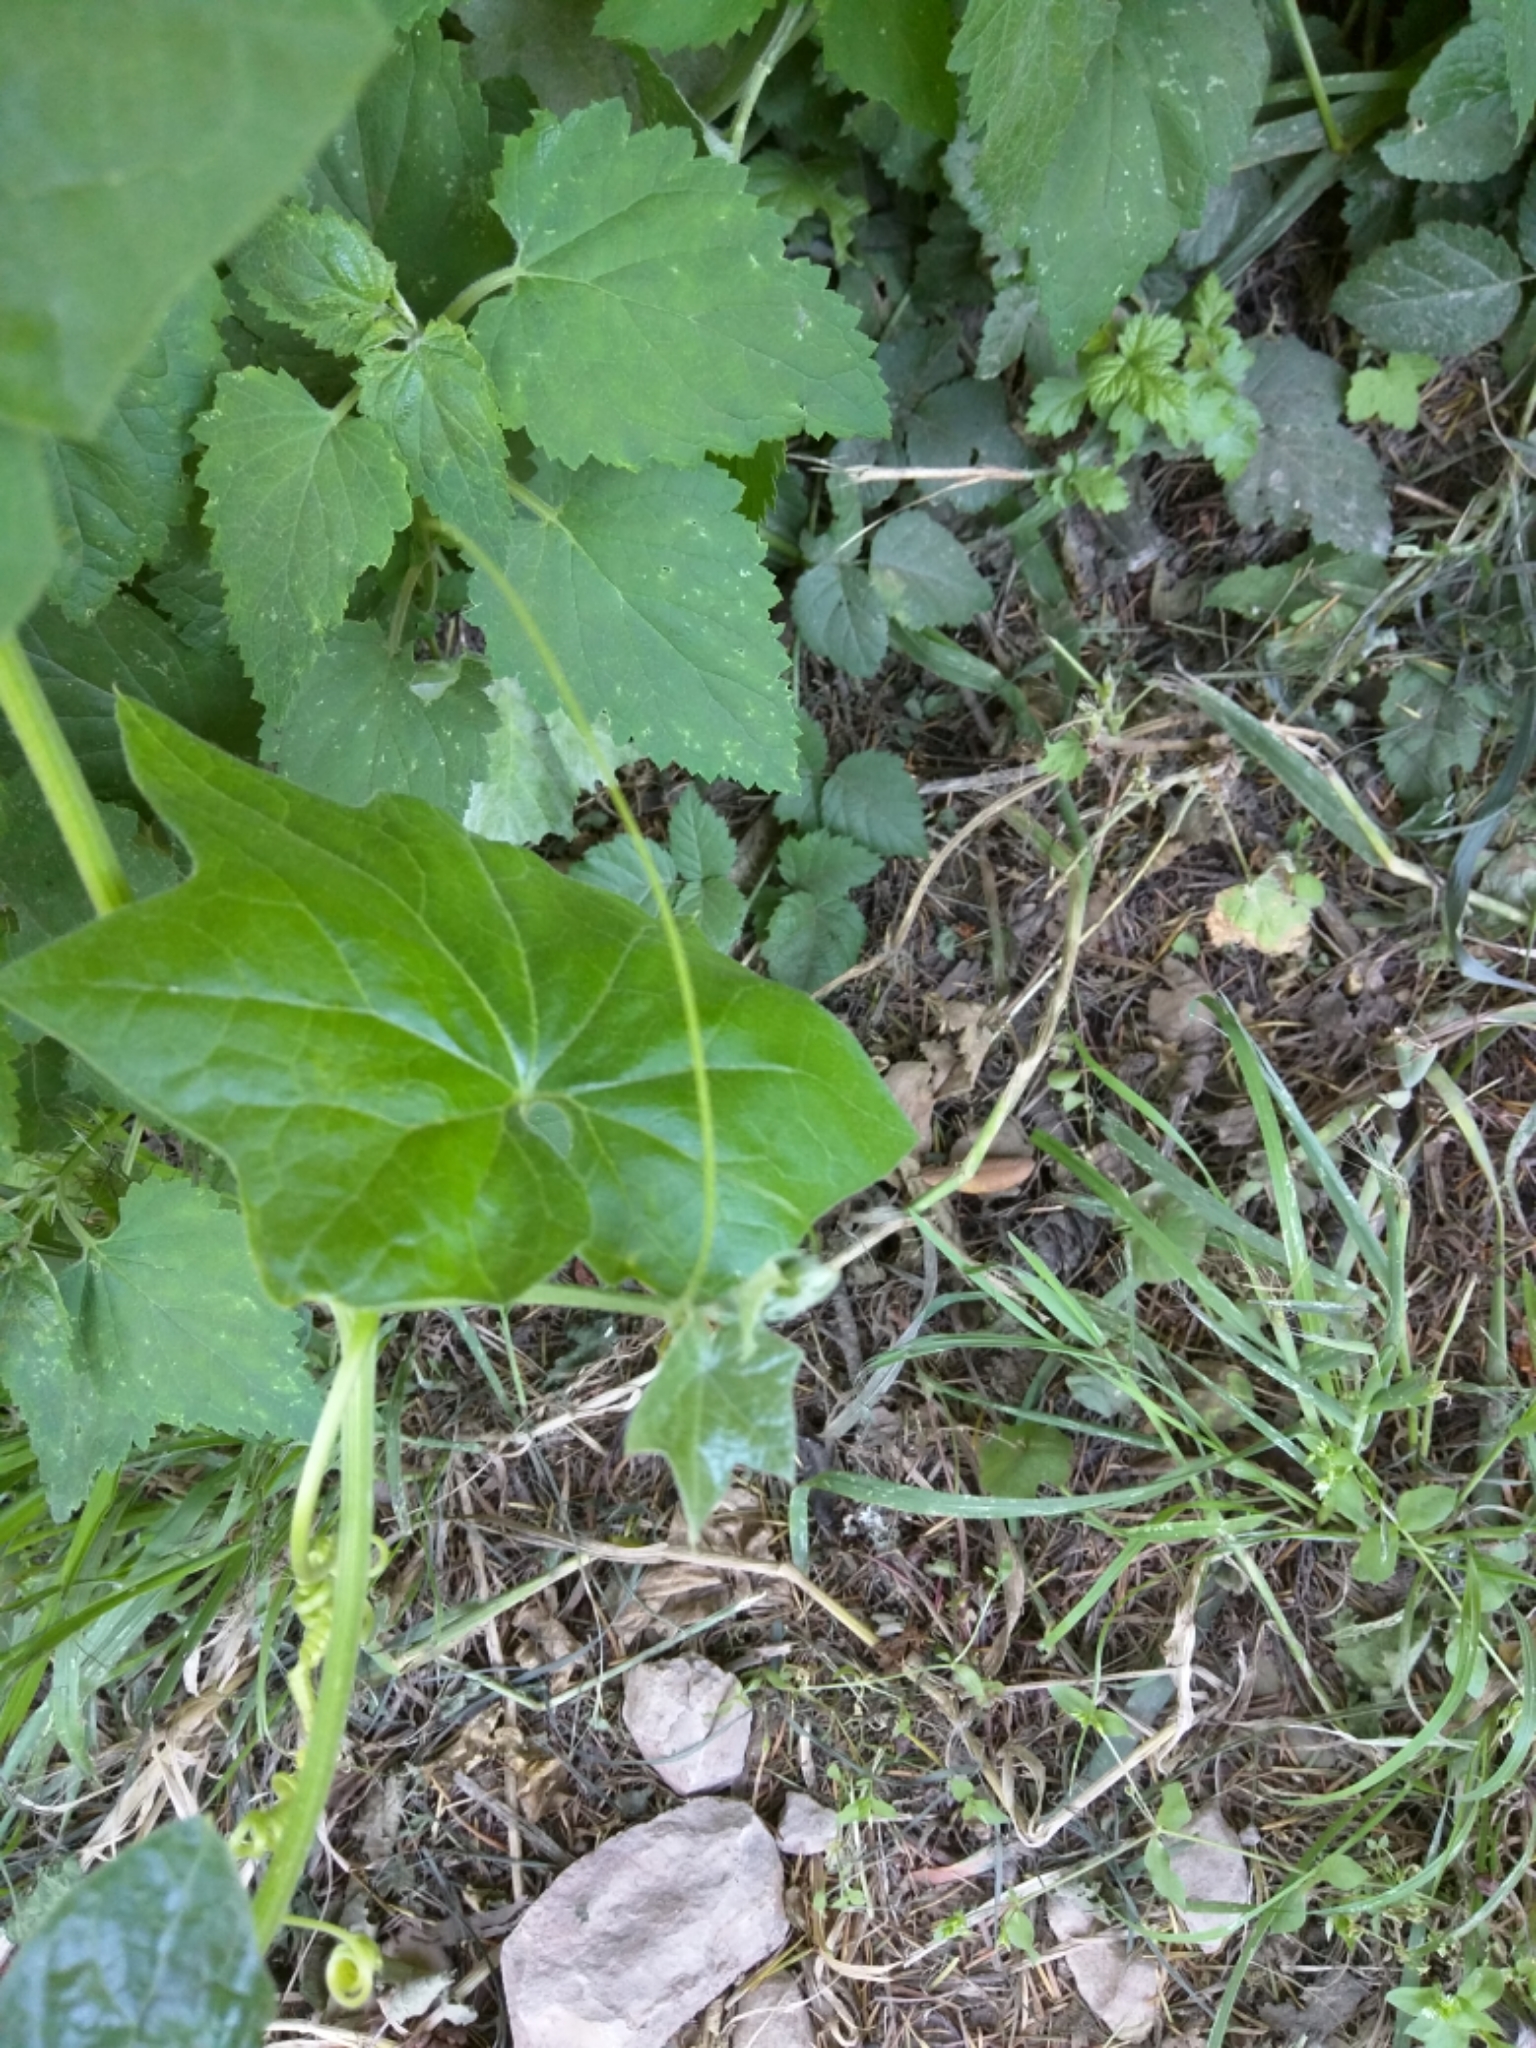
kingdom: Plantae
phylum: Tracheophyta
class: Magnoliopsida
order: Cucurbitales
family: Cucurbitaceae
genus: Marah
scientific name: Marah
